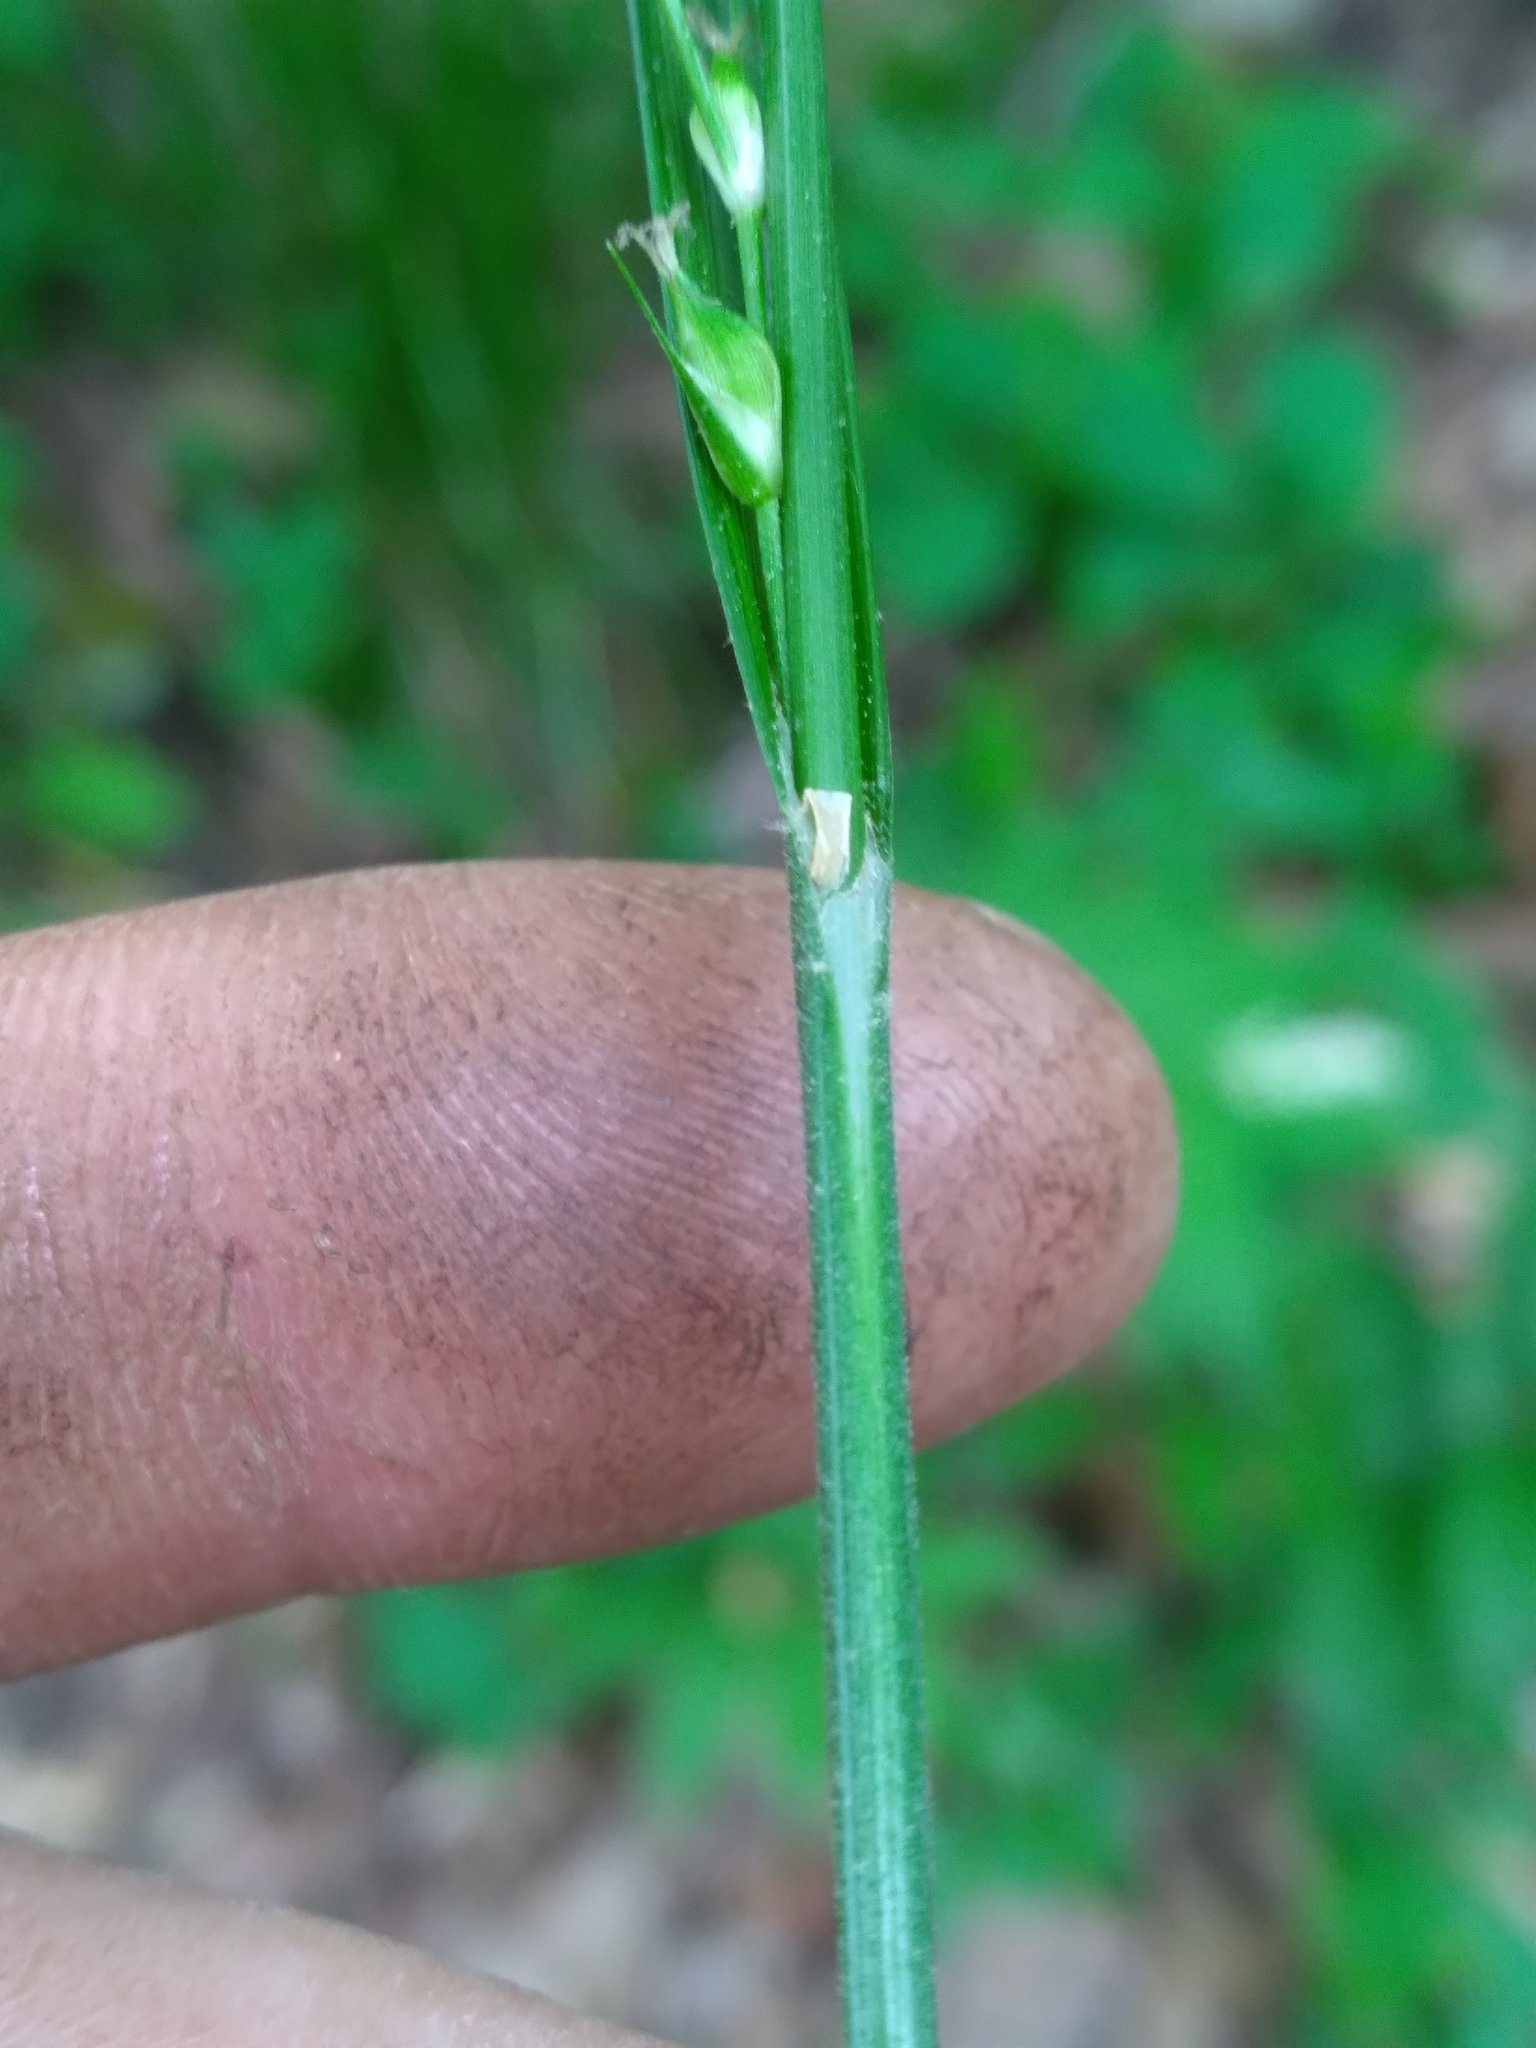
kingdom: Plantae
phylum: Tracheophyta
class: Liliopsida
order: Poales
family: Cyperaceae
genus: Carex
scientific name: Carex hitchcockiana
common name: Hairy grey sedge
